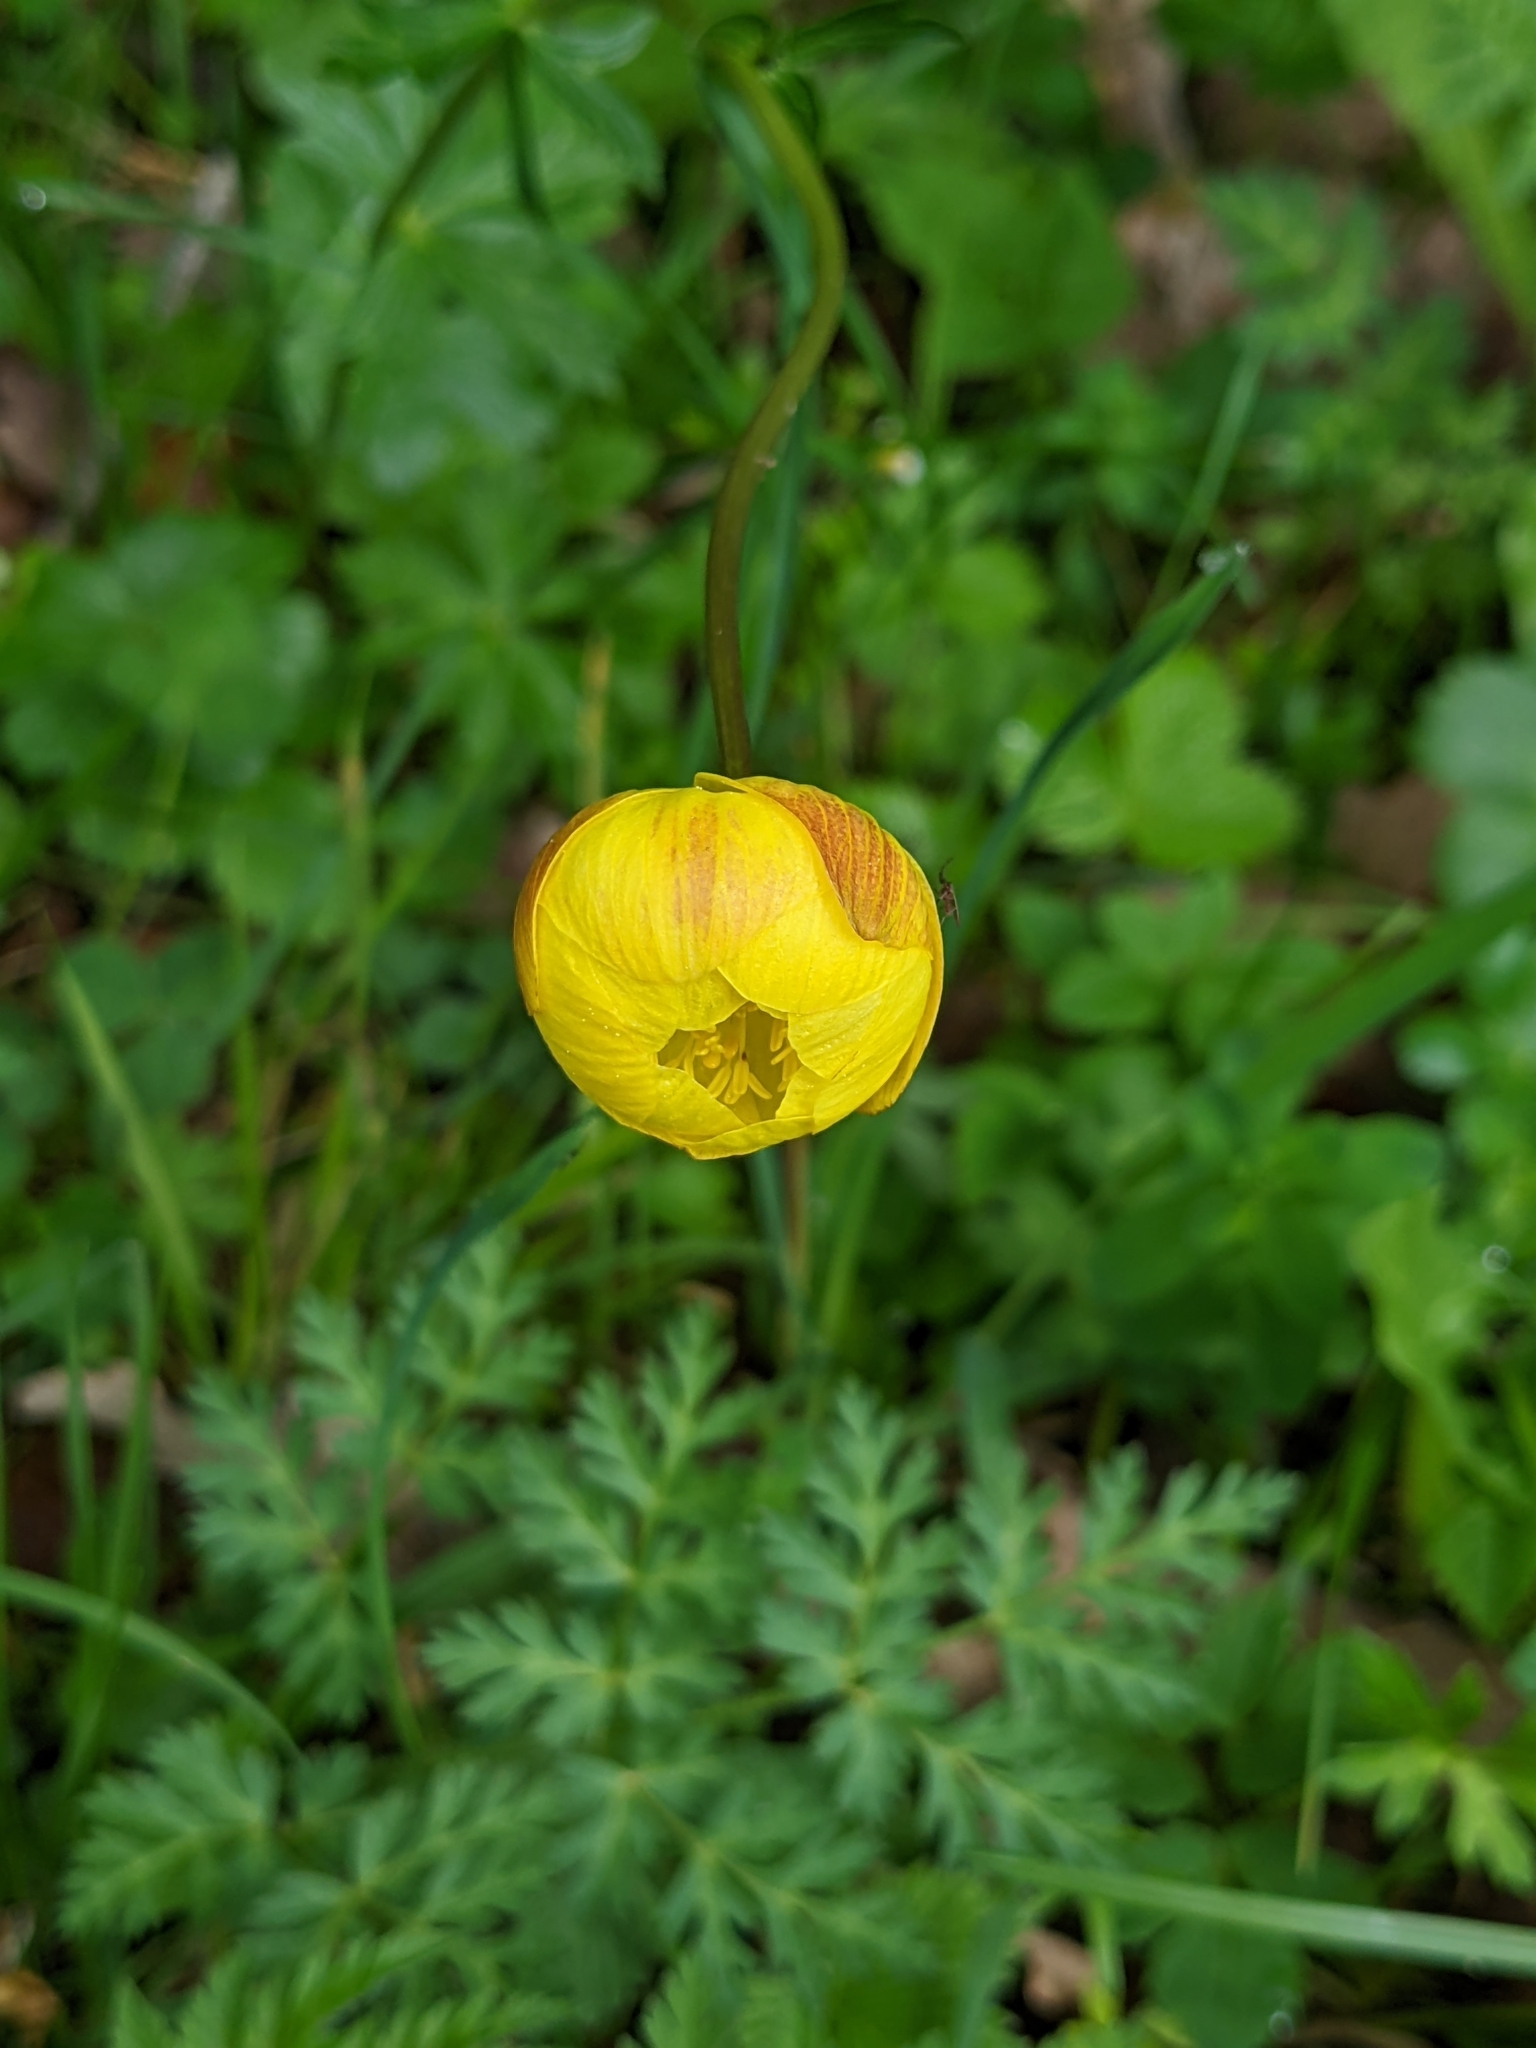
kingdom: Plantae
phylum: Tracheophyta
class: Magnoliopsida
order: Ranunculales
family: Ranunculaceae
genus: Trollius
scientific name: Trollius europaeus
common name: European globeflower
